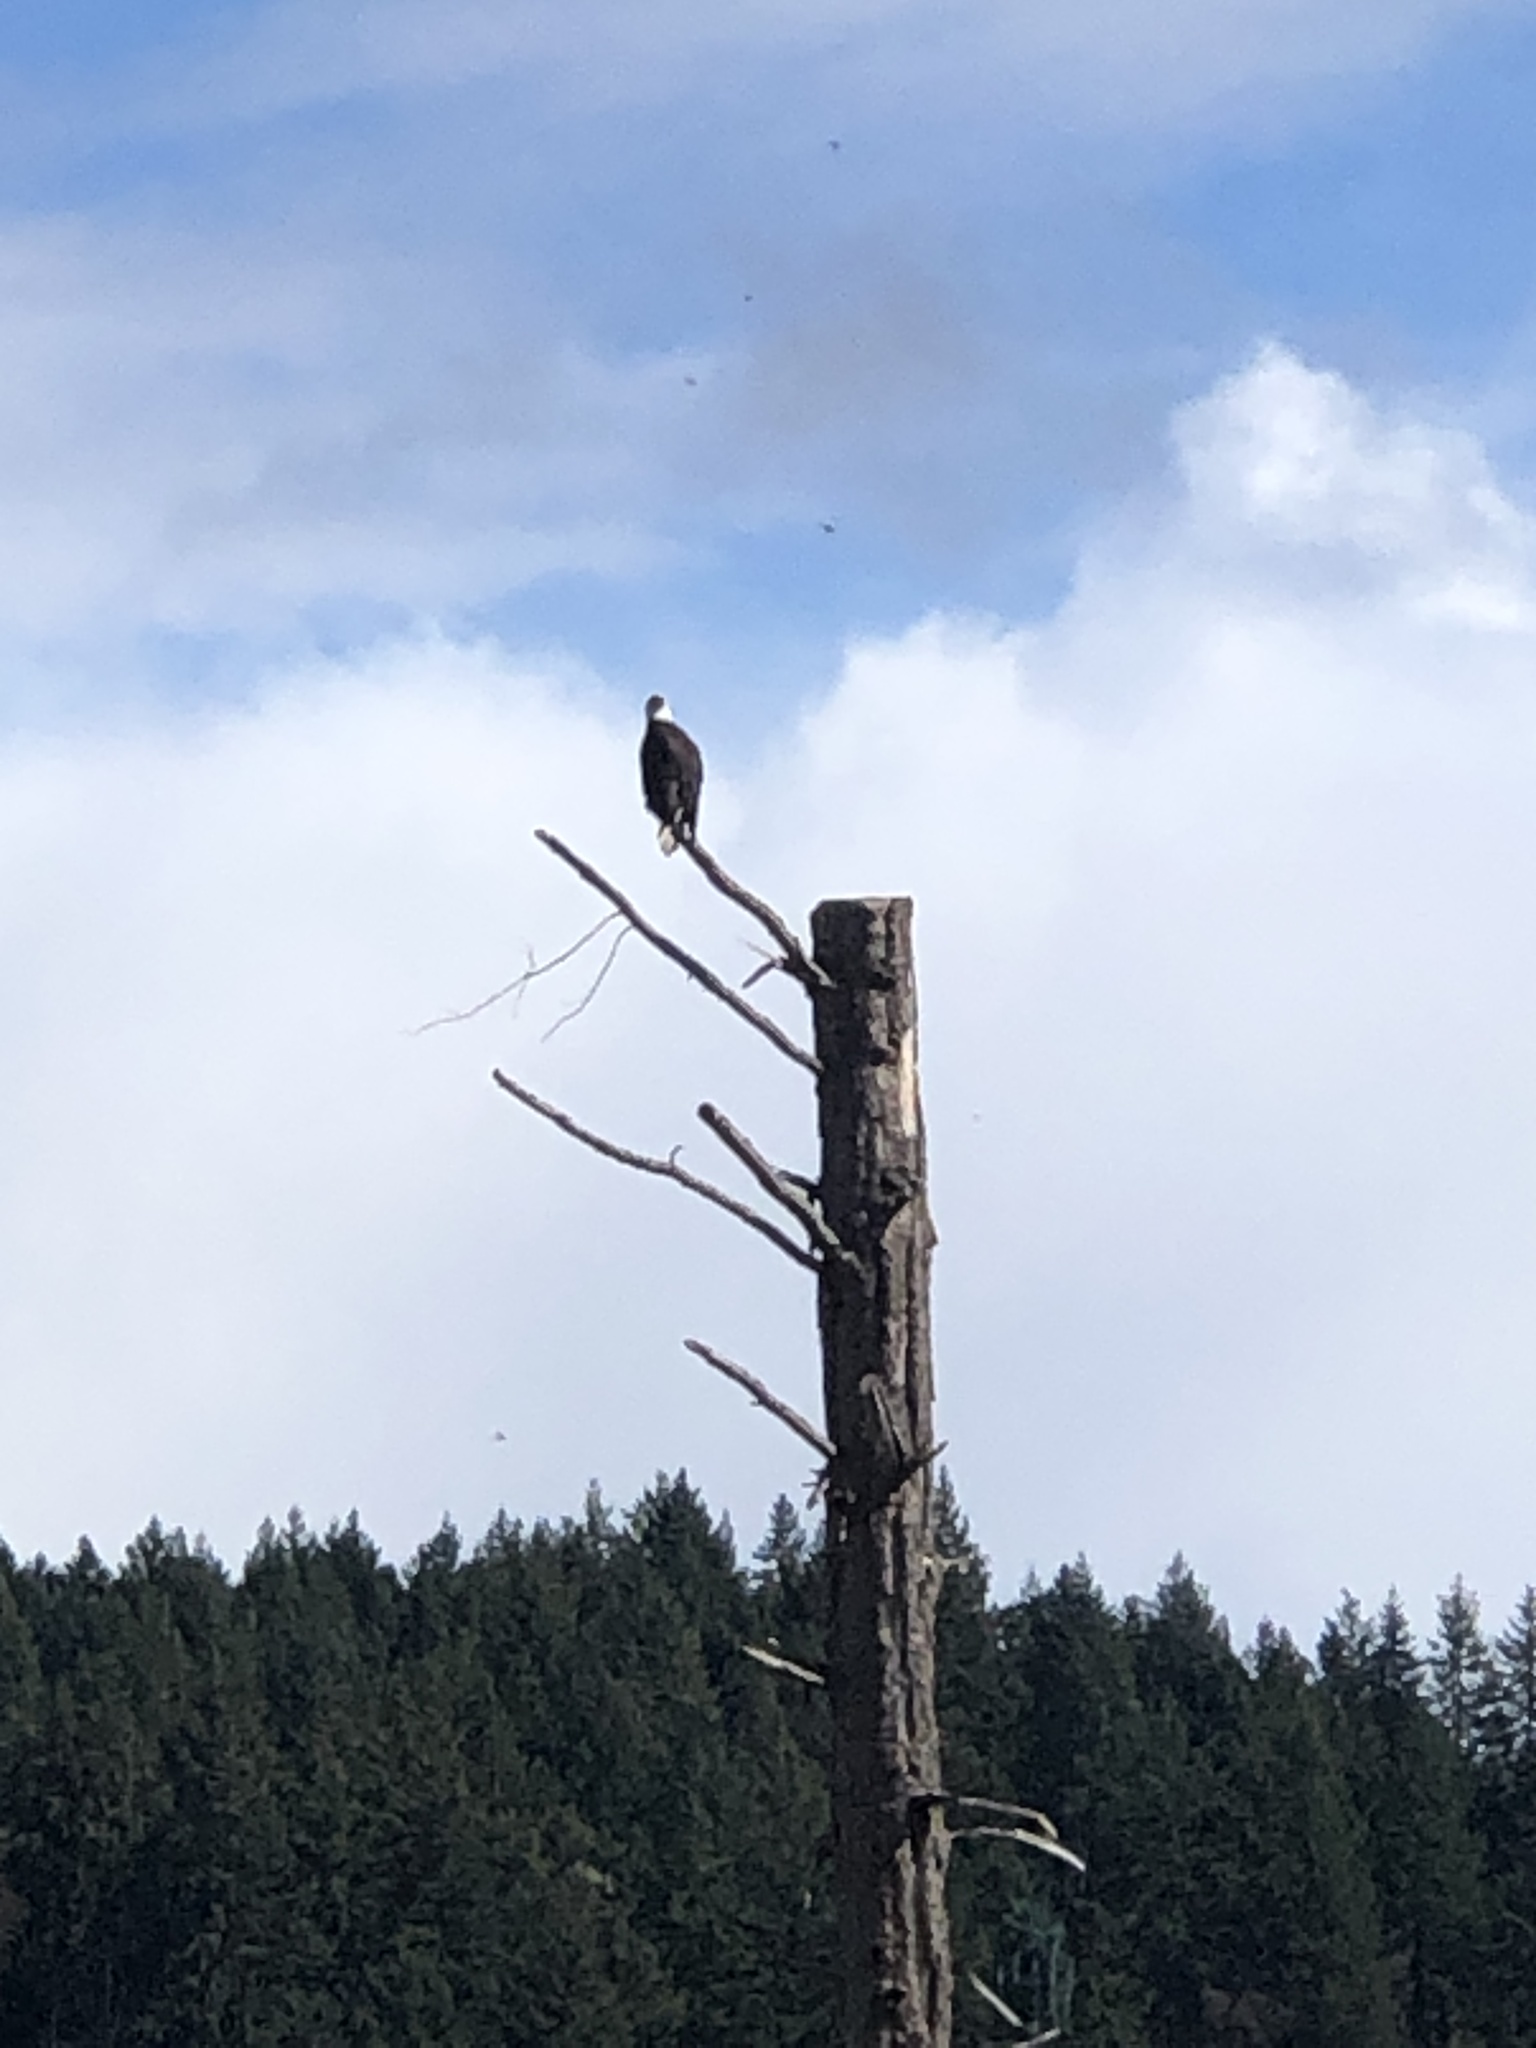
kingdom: Animalia
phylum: Chordata
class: Aves
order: Accipitriformes
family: Accipitridae
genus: Haliaeetus
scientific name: Haliaeetus leucocephalus
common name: Bald eagle
